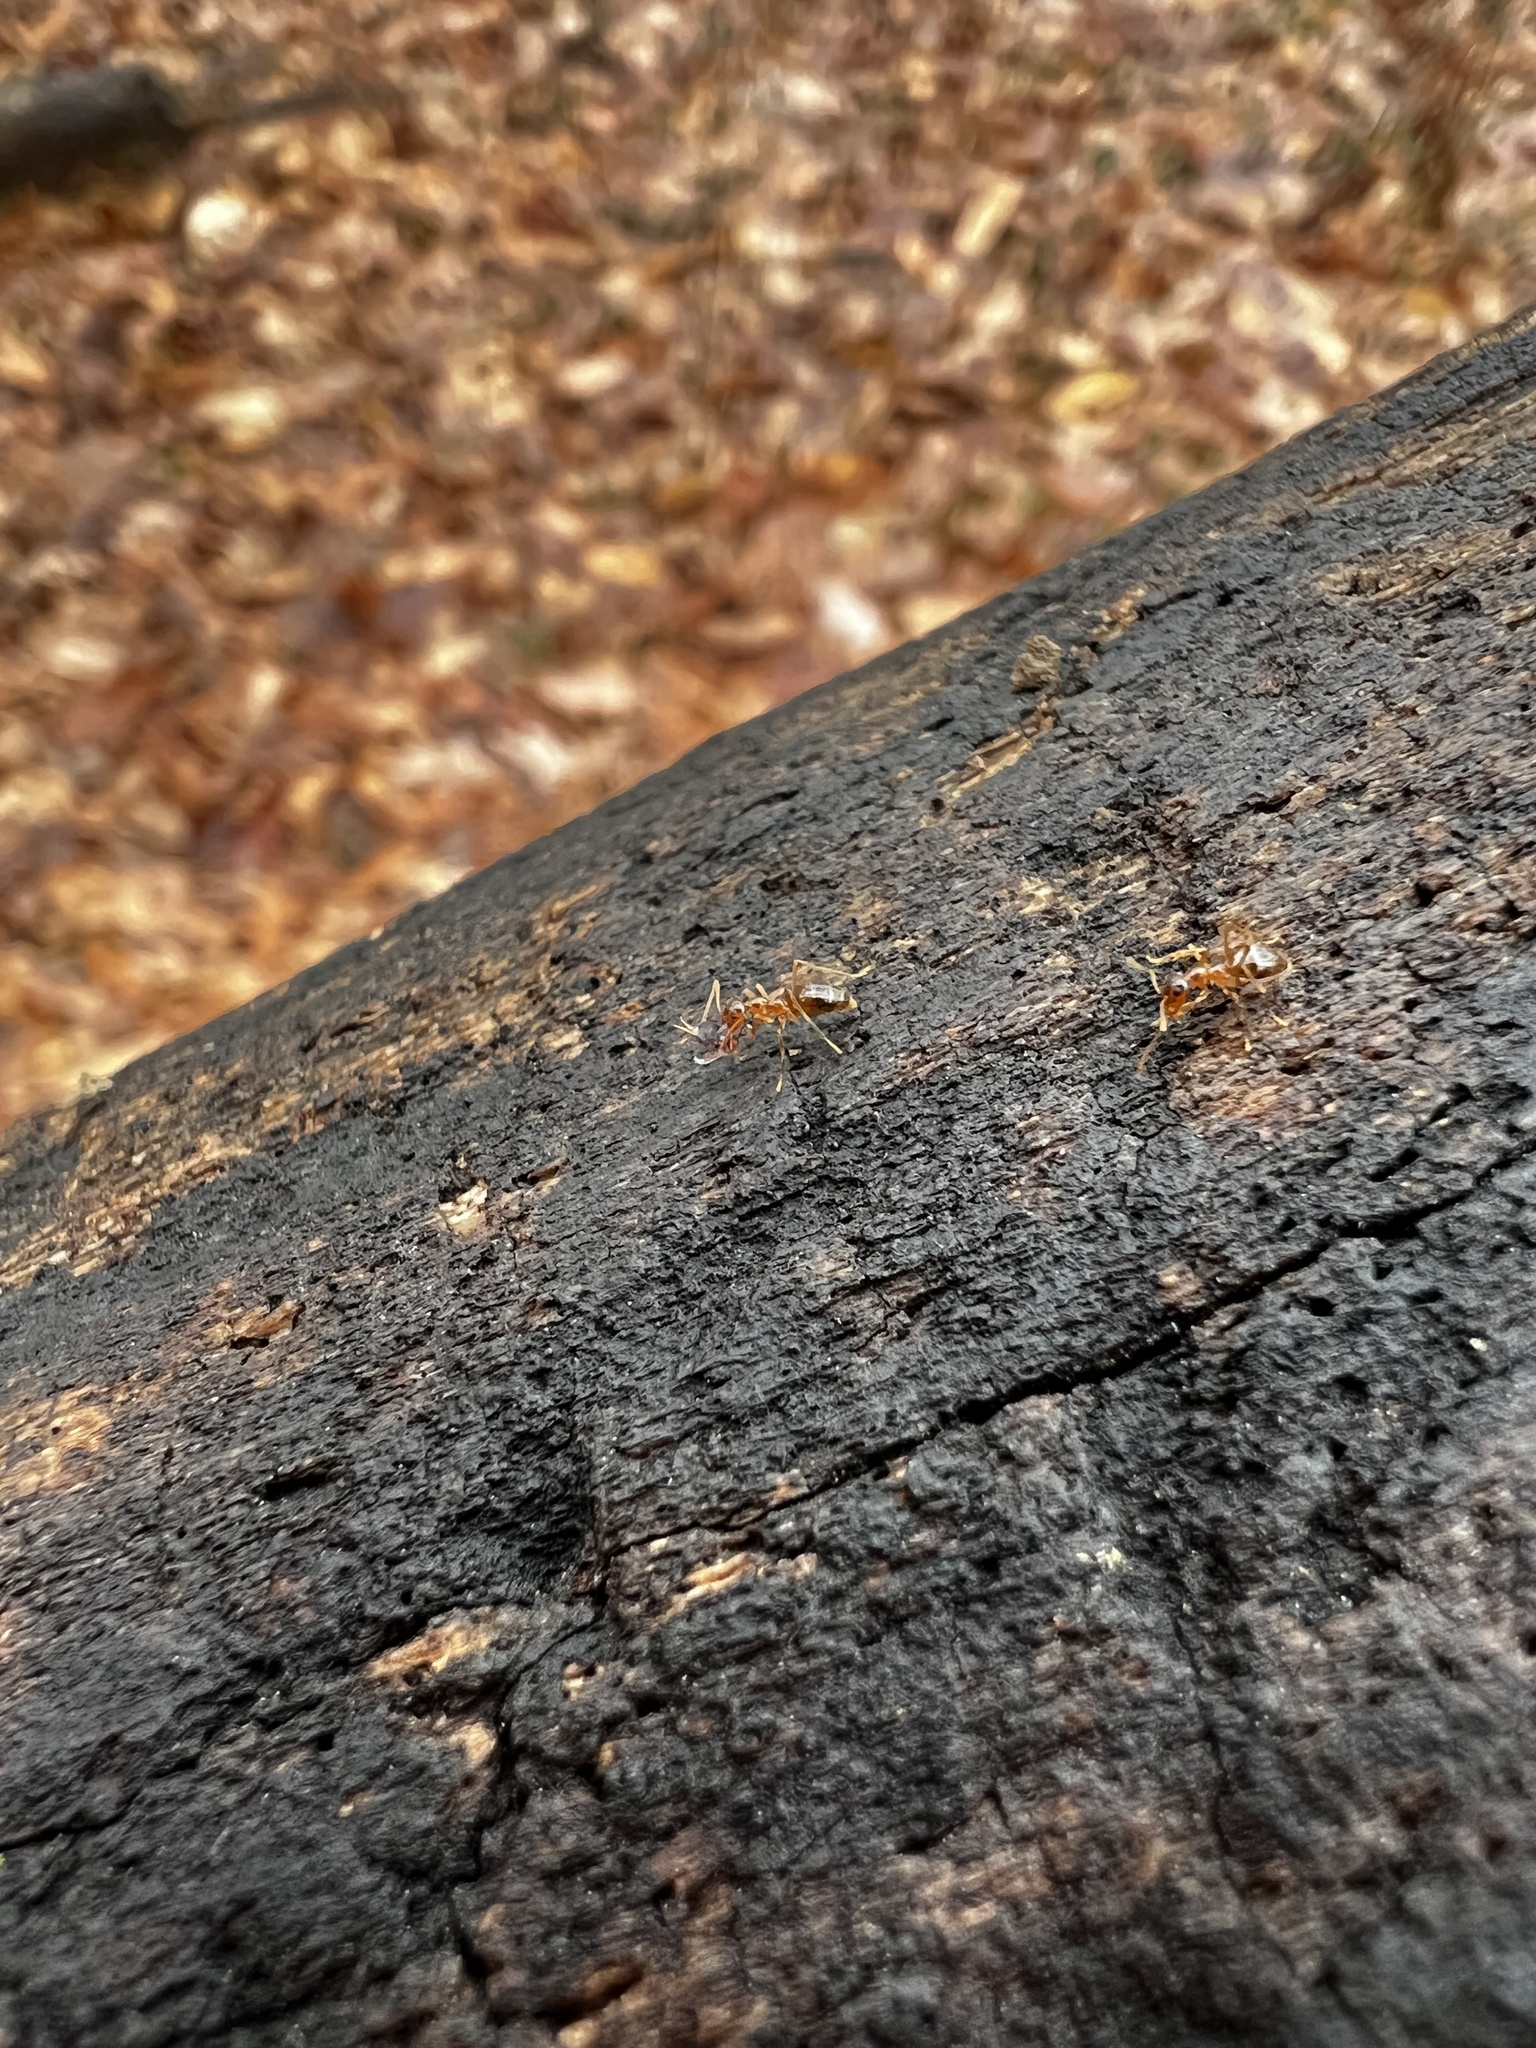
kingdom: Animalia
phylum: Arthropoda
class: Insecta
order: Hymenoptera
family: Formicidae
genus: Prenolepis
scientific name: Prenolepis imparis
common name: Small honey ant
